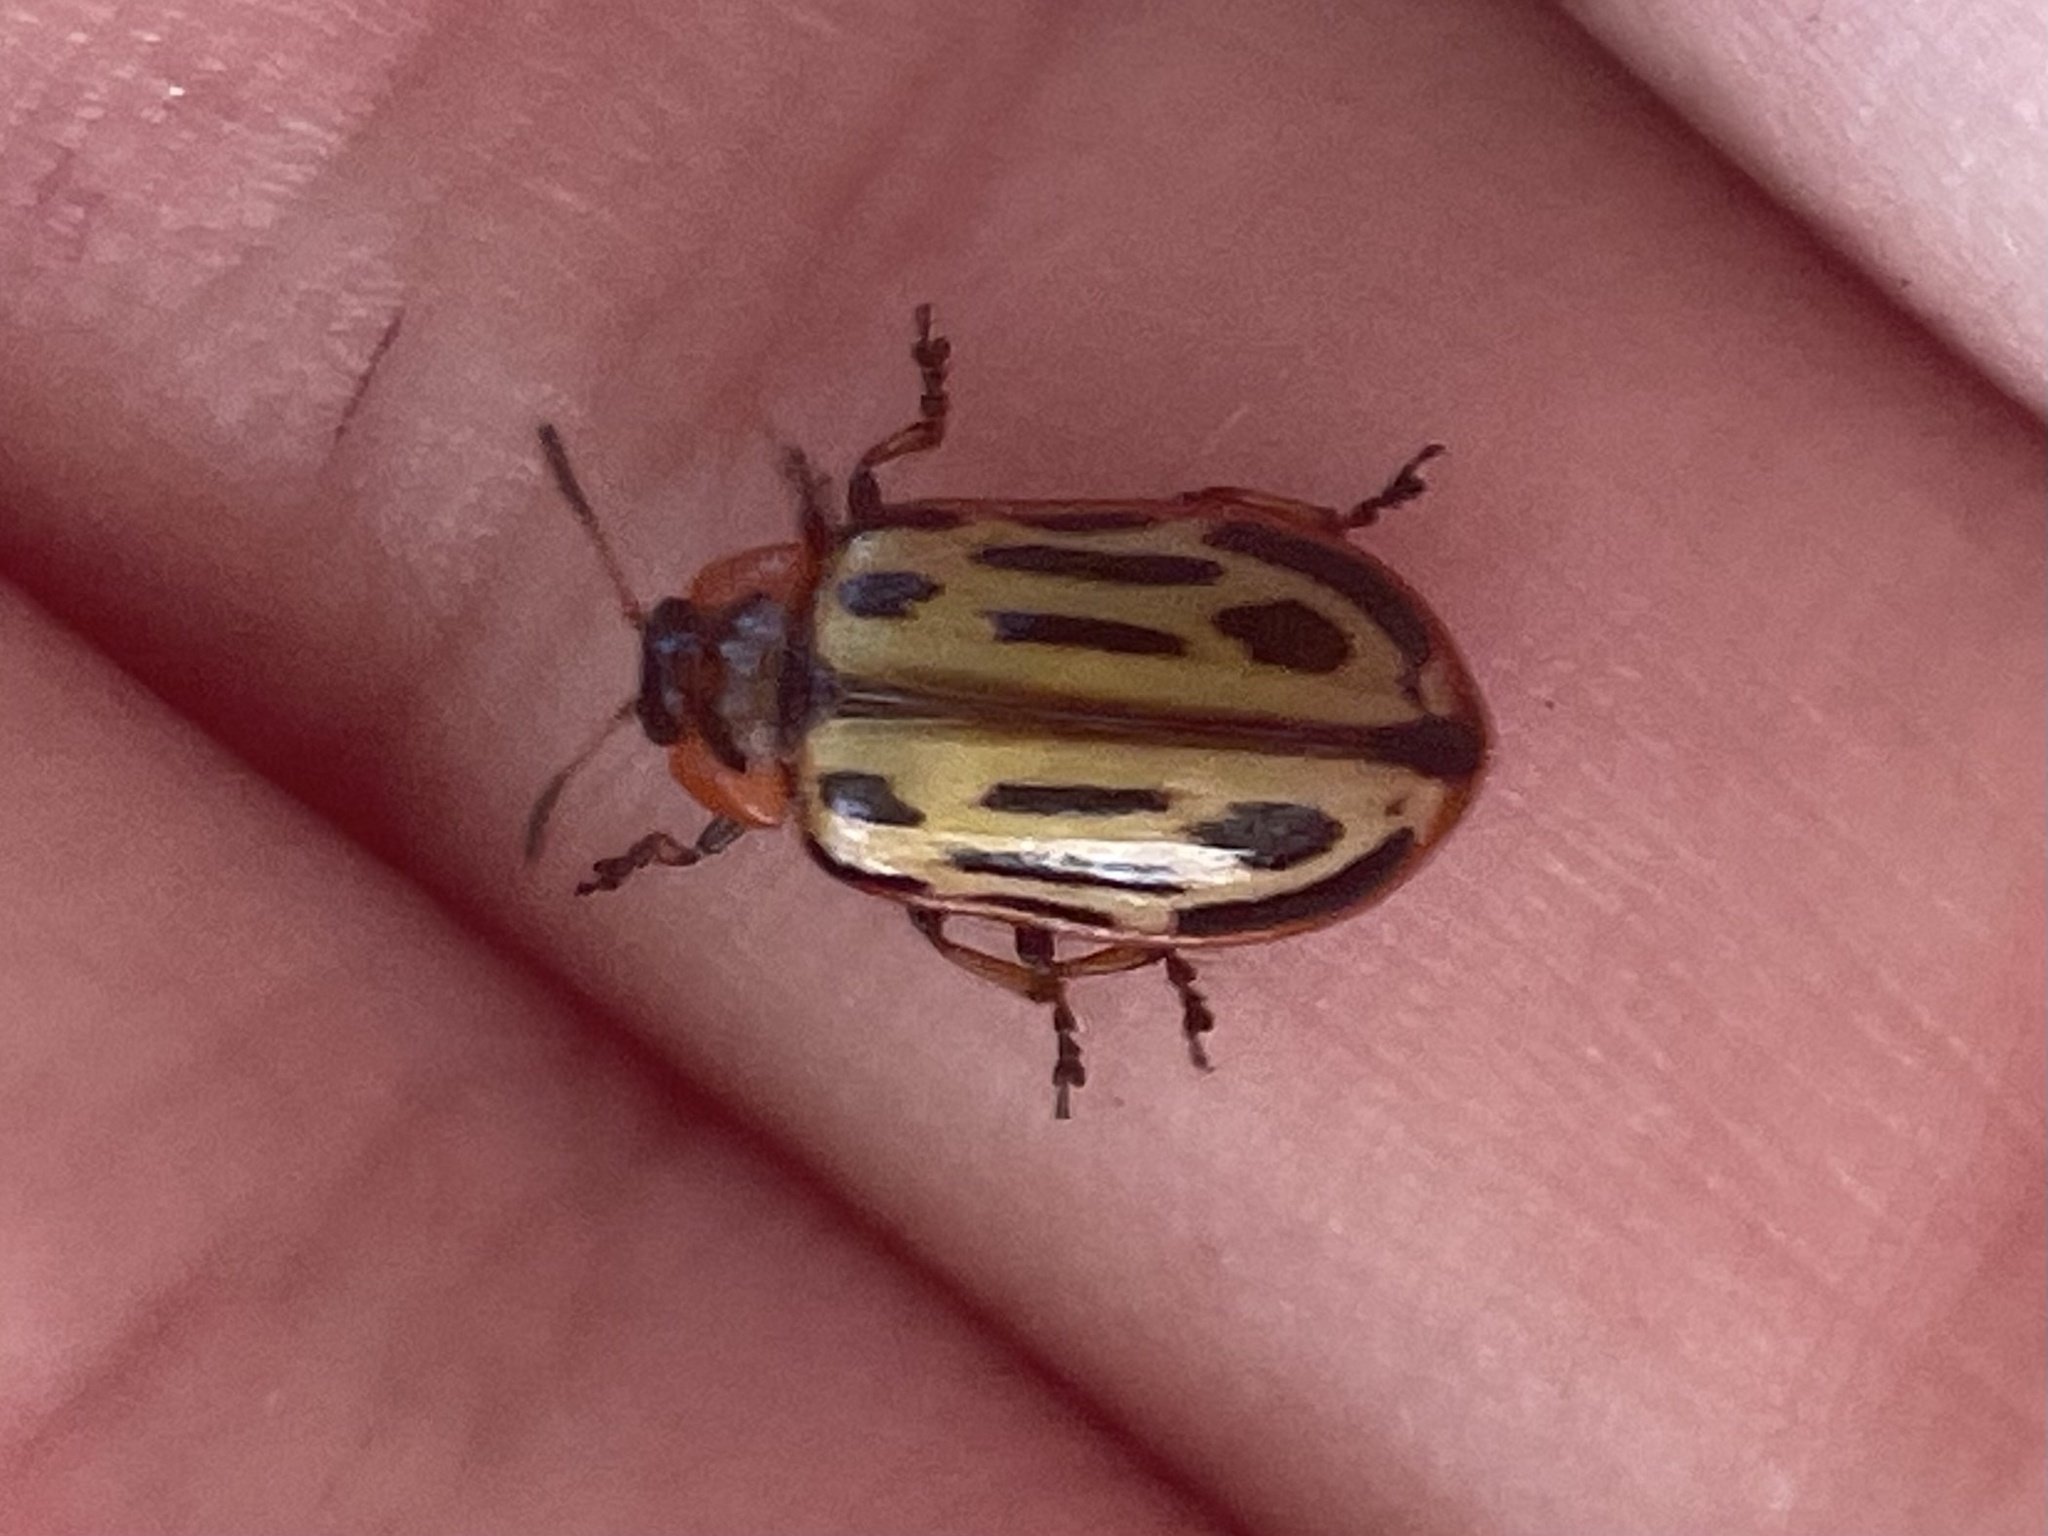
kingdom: Animalia
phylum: Arthropoda
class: Insecta
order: Coleoptera
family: Chrysomelidae
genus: Aethiopocassis
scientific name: Aethiopocassis scripta
